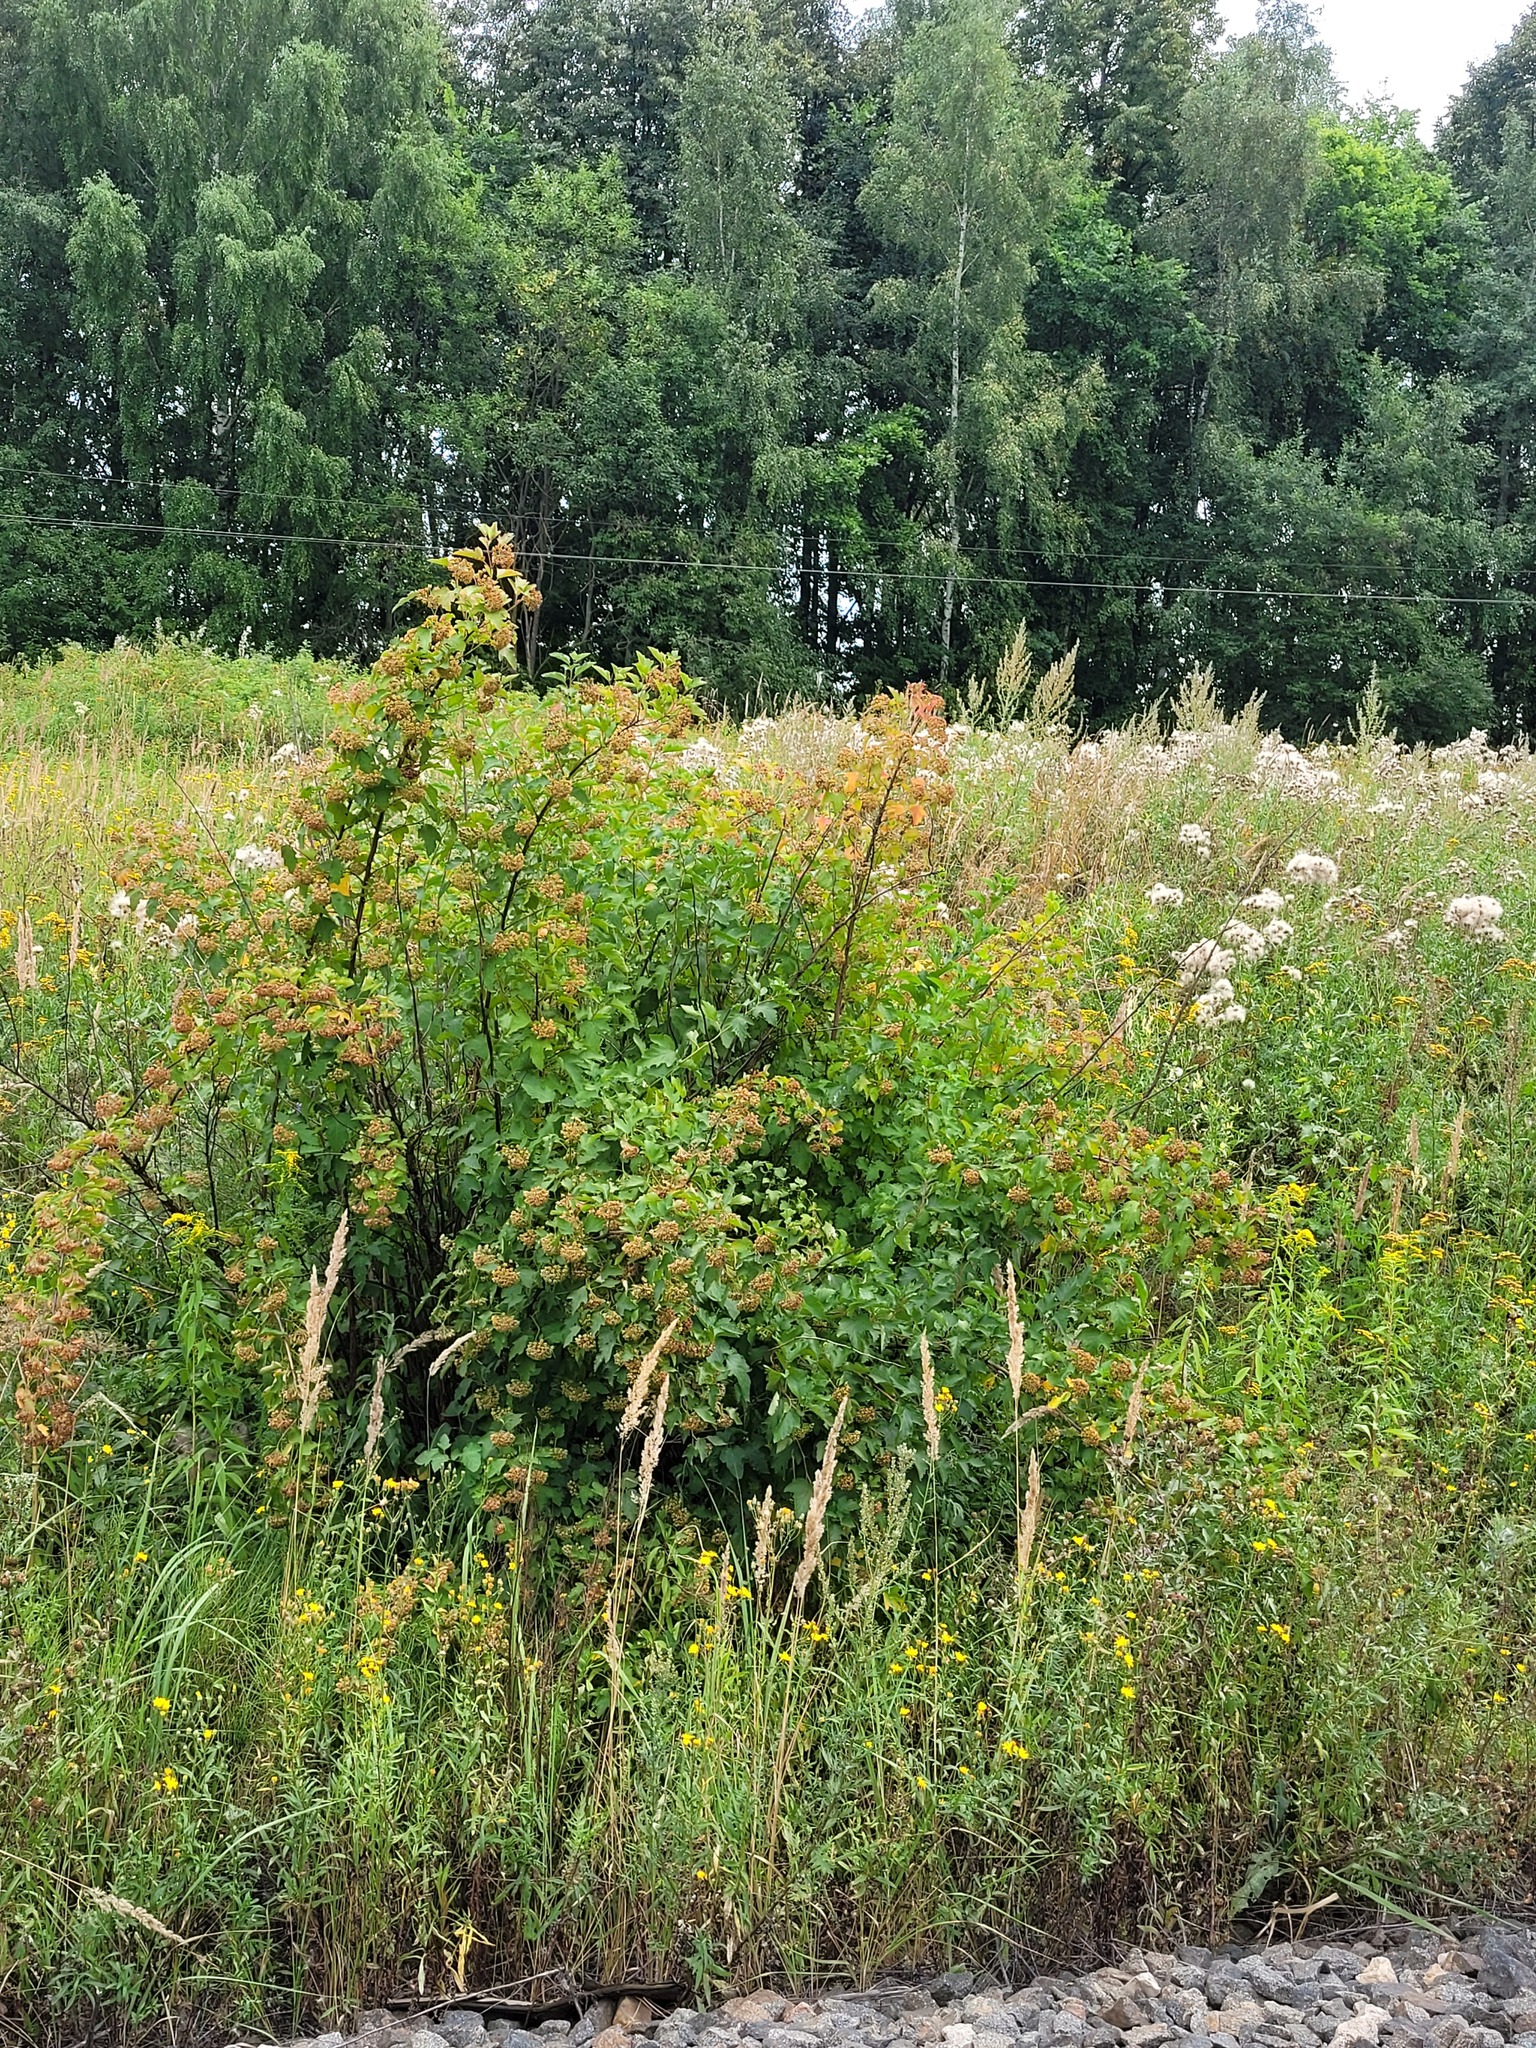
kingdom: Plantae
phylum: Tracheophyta
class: Magnoliopsida
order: Rosales
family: Rosaceae
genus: Physocarpus
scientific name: Physocarpus opulifolius
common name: Ninebark
